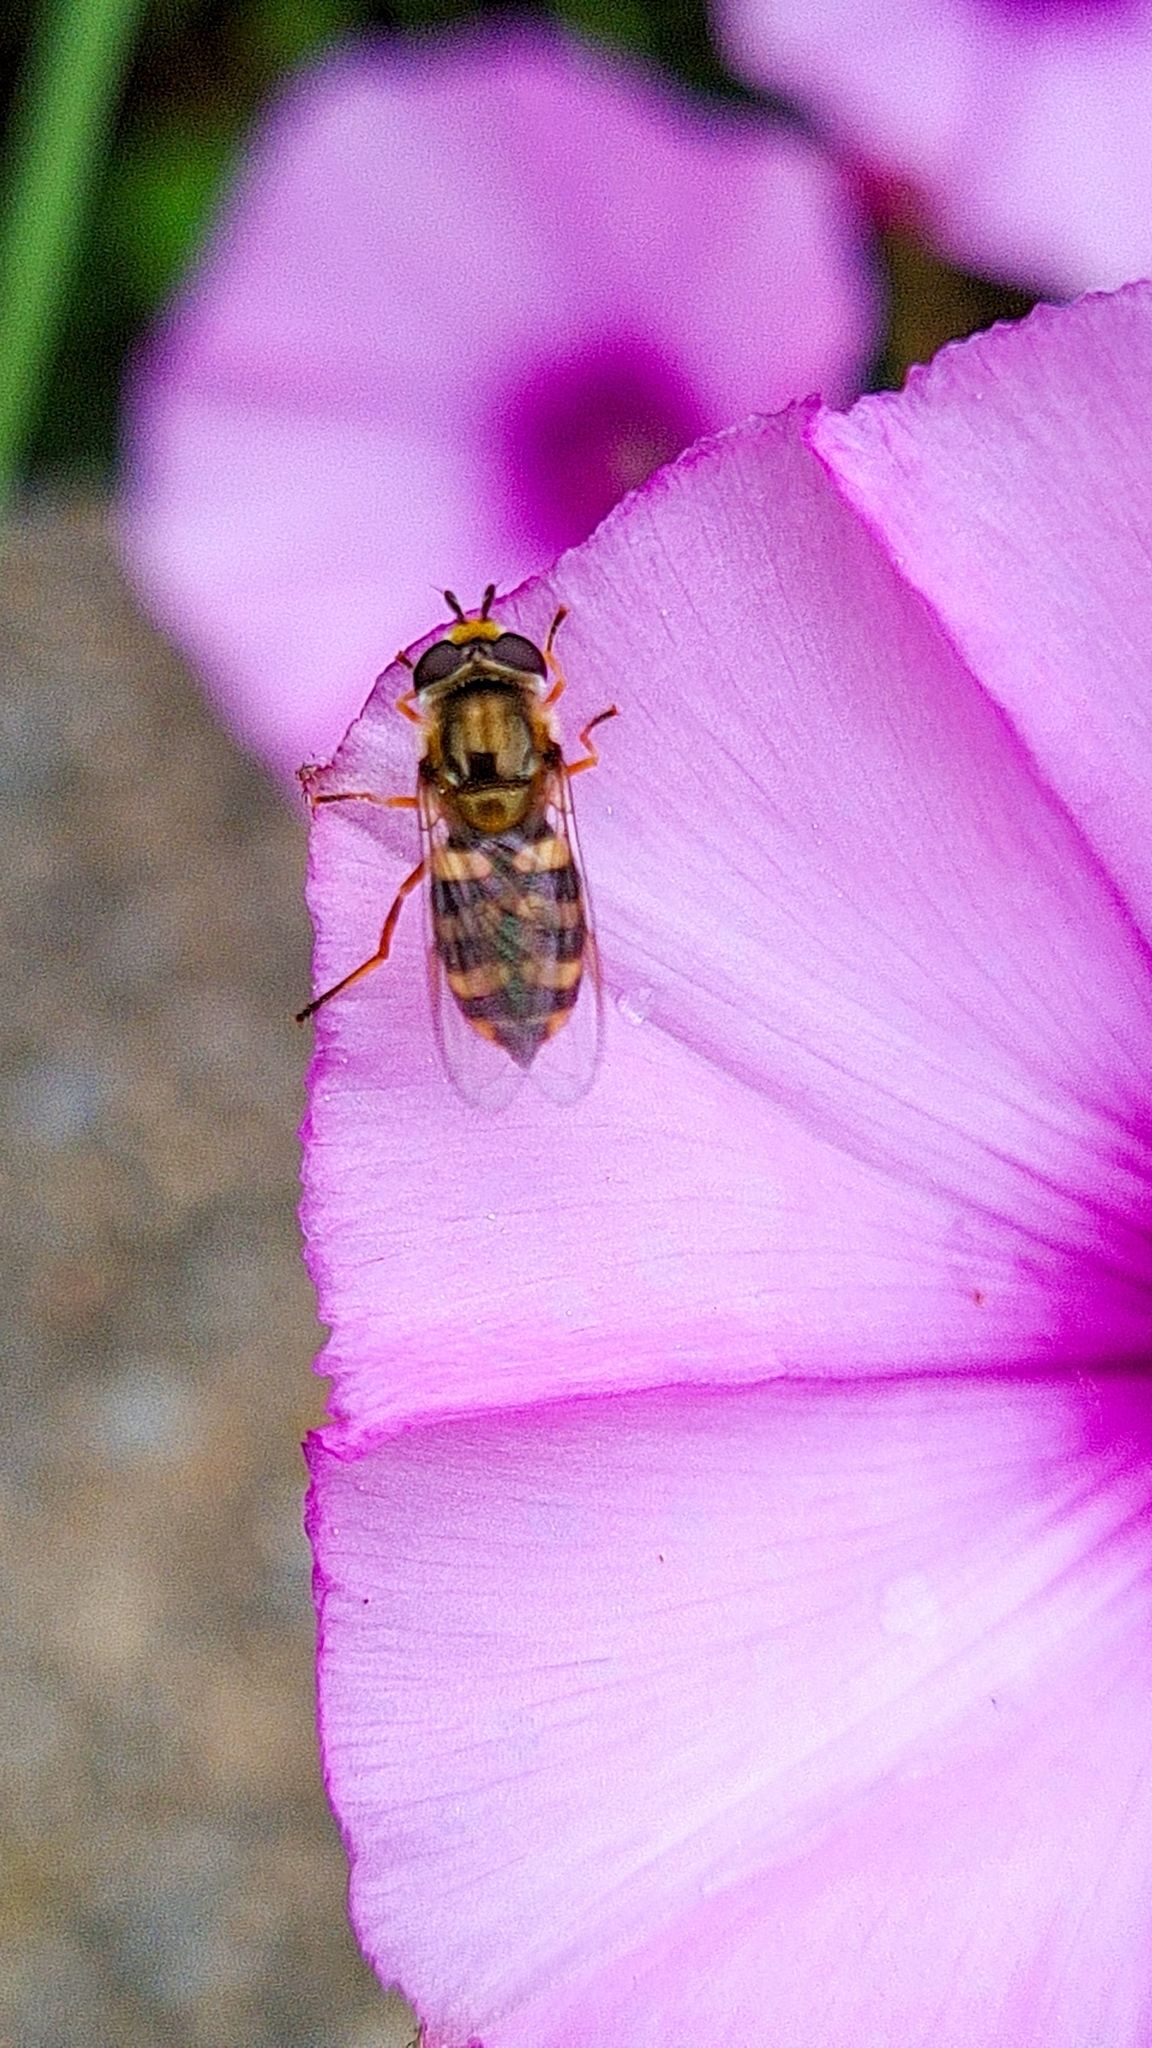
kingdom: Animalia
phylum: Arthropoda
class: Insecta
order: Diptera
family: Syrphidae
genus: Eupeodes
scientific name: Eupeodes corollae
